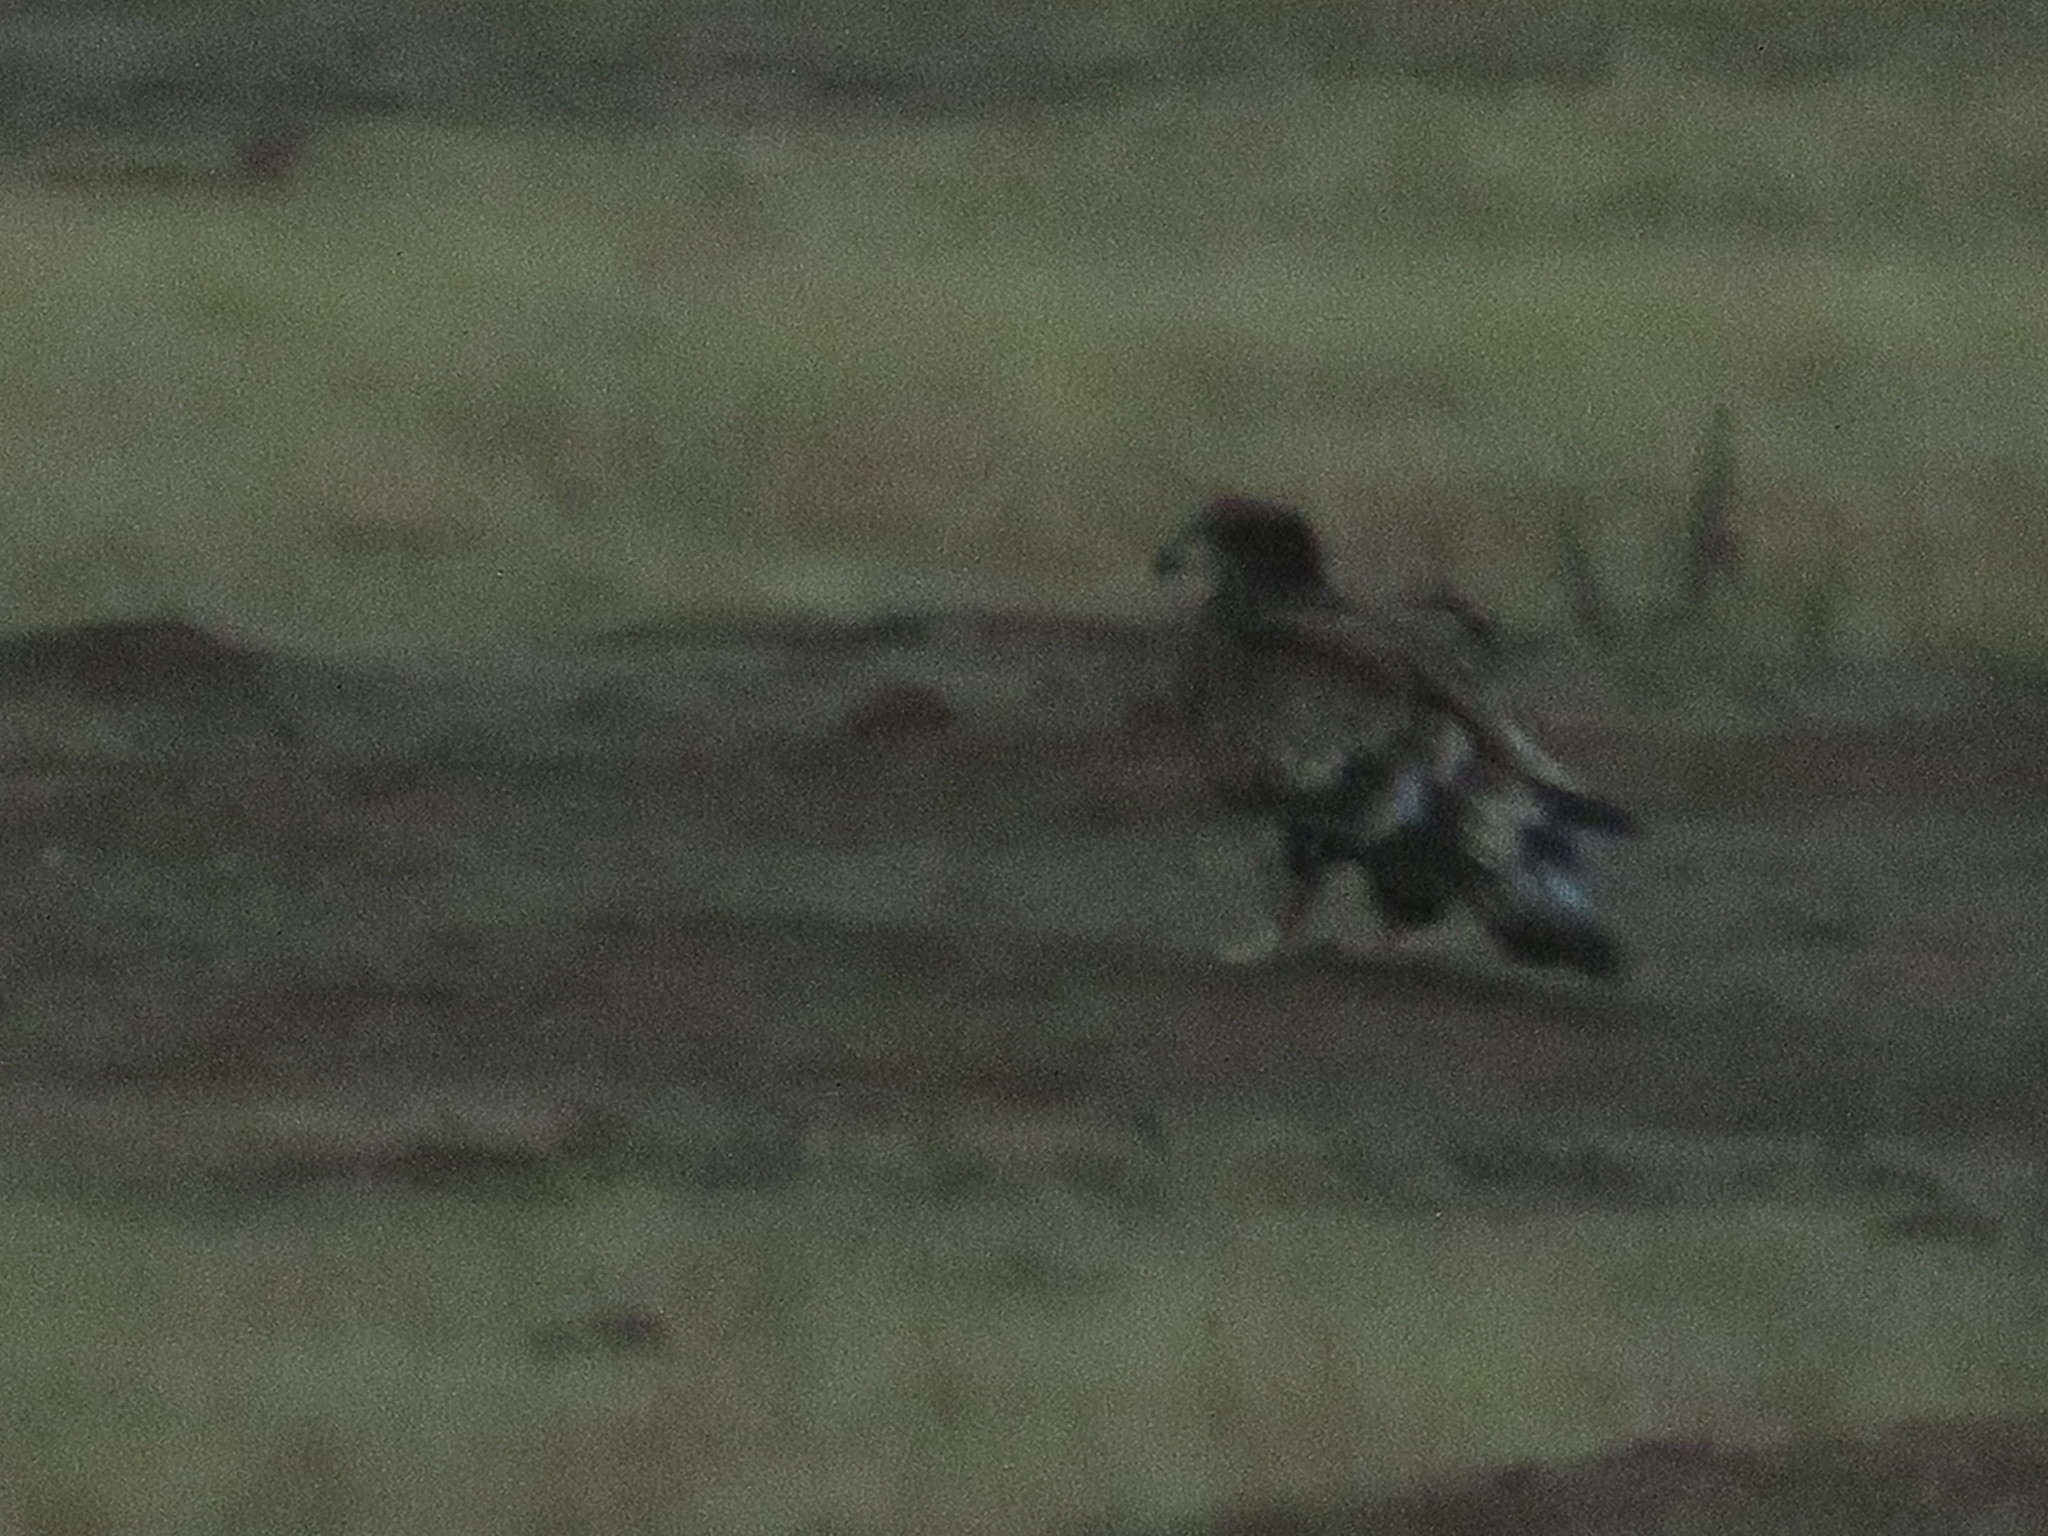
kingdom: Animalia
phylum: Chordata
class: Aves
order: Accipitriformes
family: Accipitridae
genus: Aquila
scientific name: Aquila chrysaetos
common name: Golden eagle
